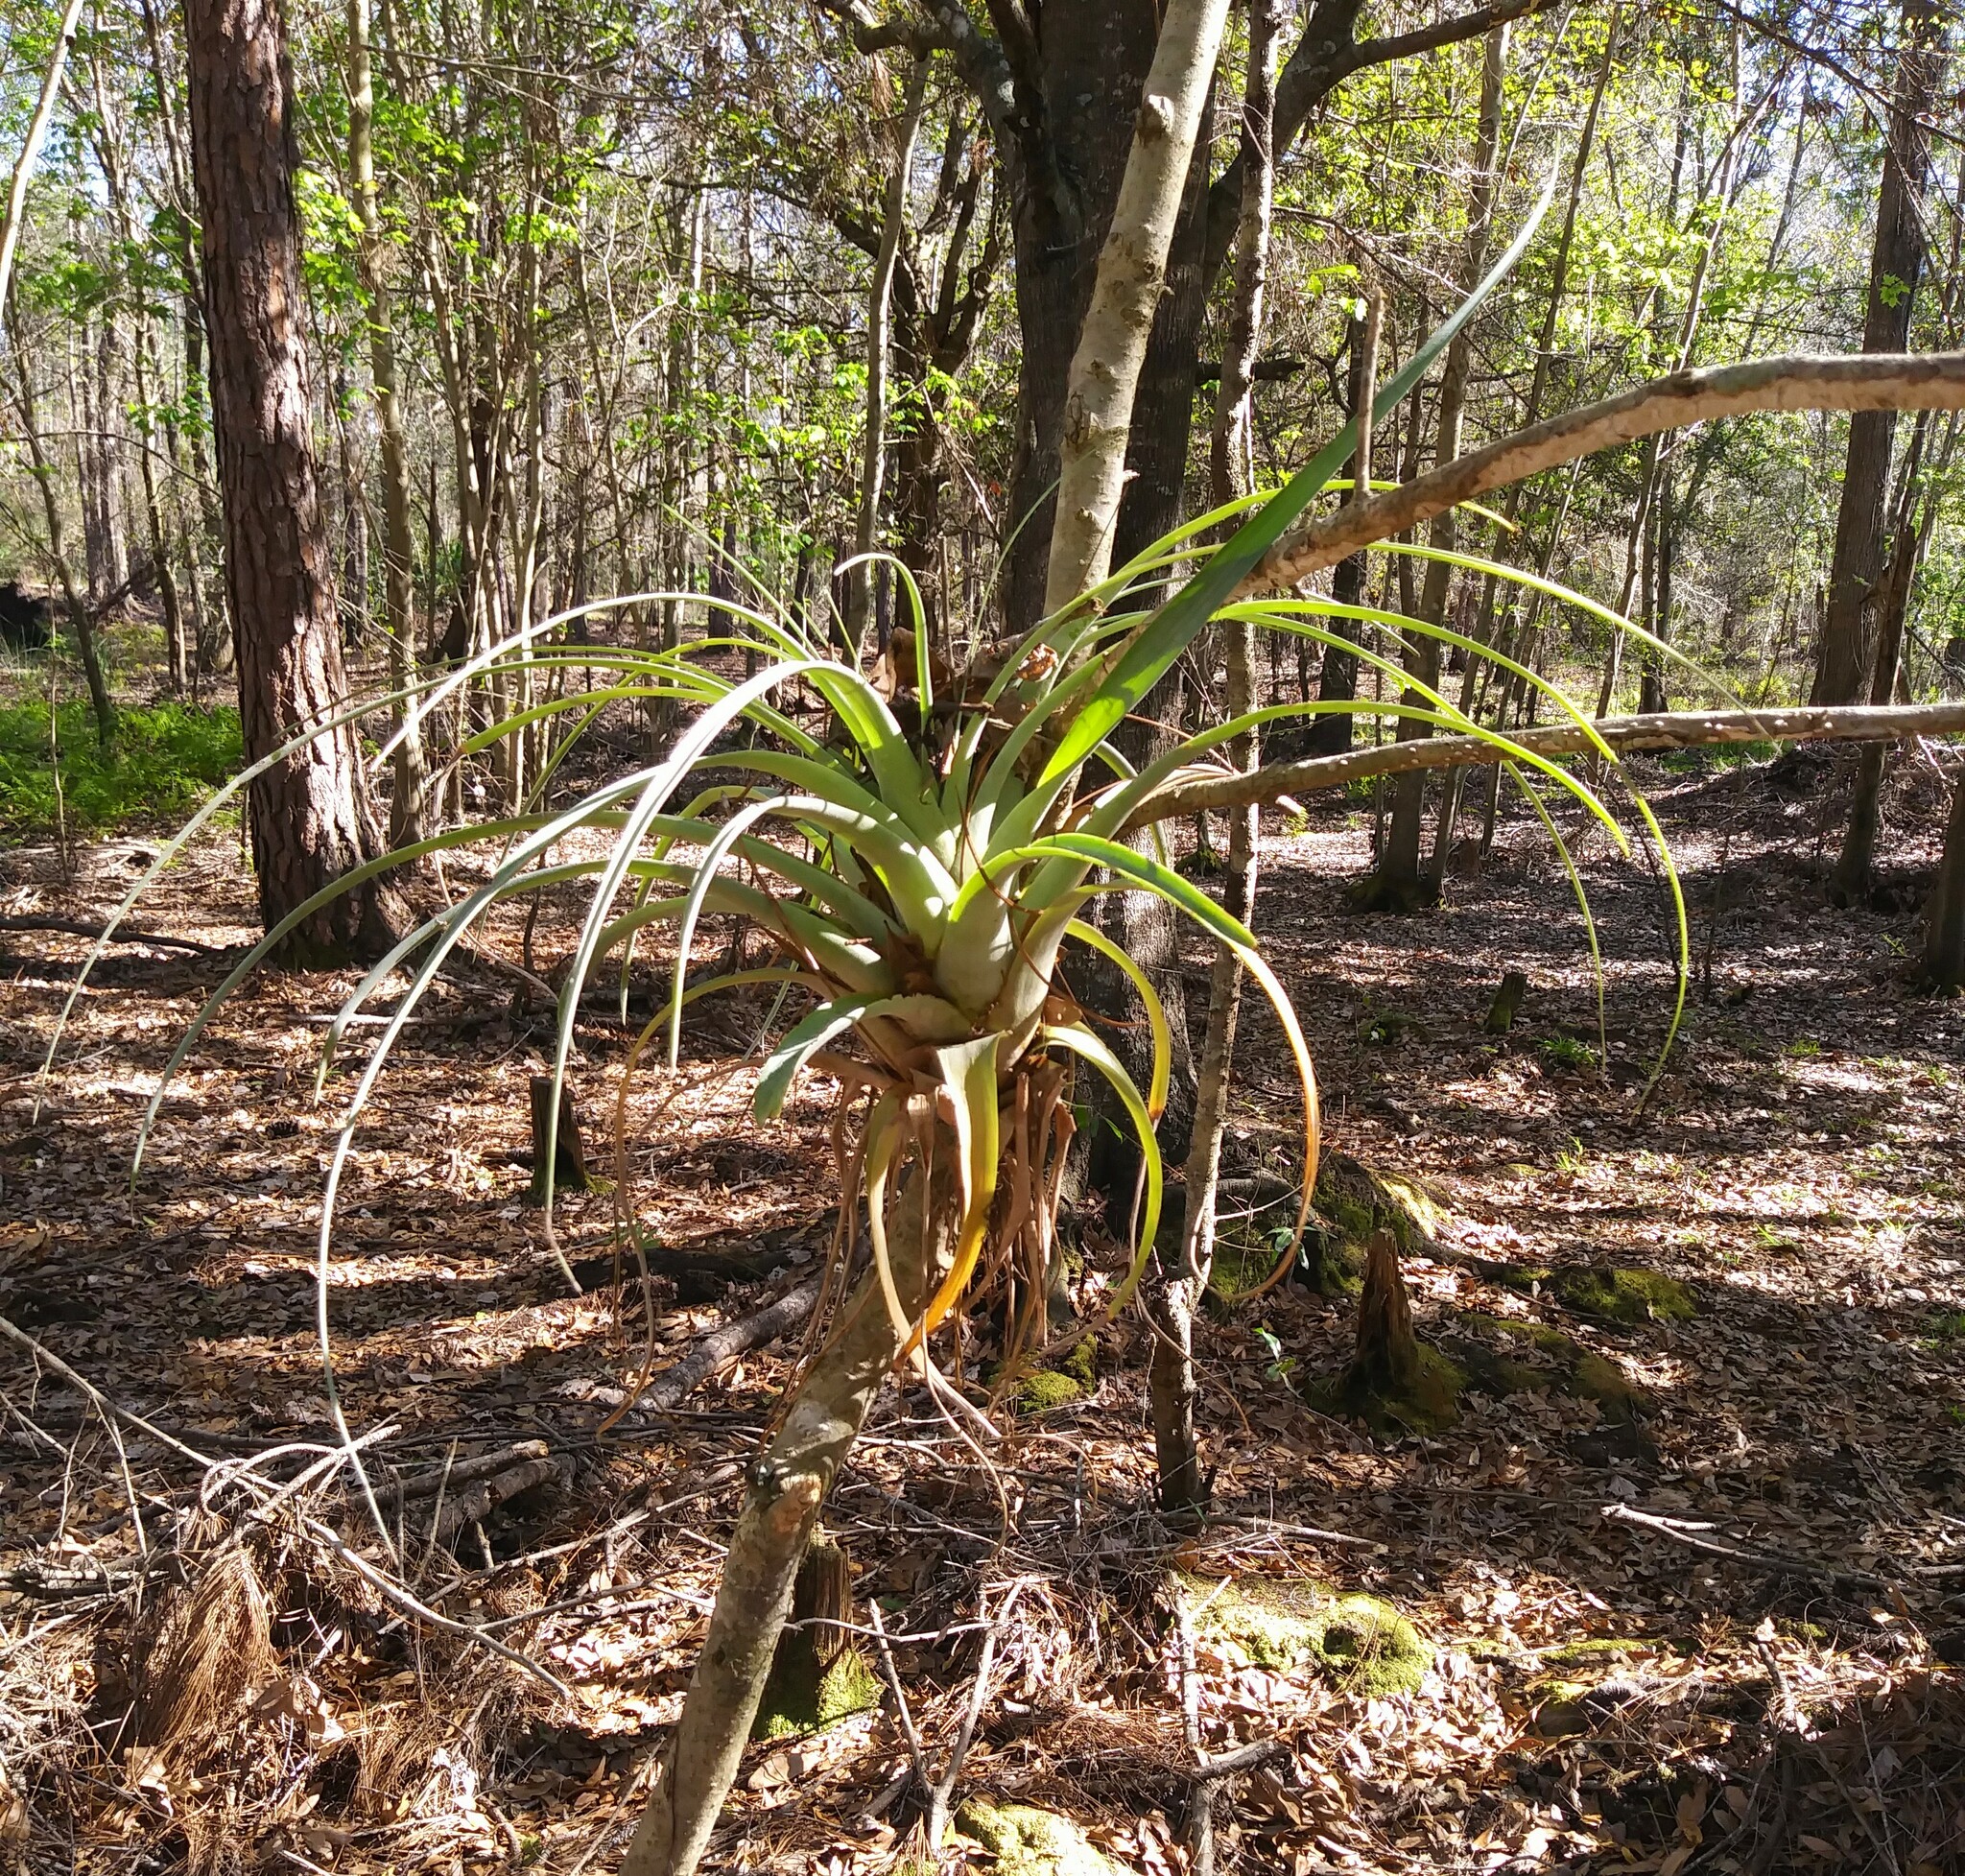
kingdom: Plantae
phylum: Tracheophyta
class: Liliopsida
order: Poales
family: Bromeliaceae
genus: Tillandsia
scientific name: Tillandsia utriculata
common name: Wild pine
